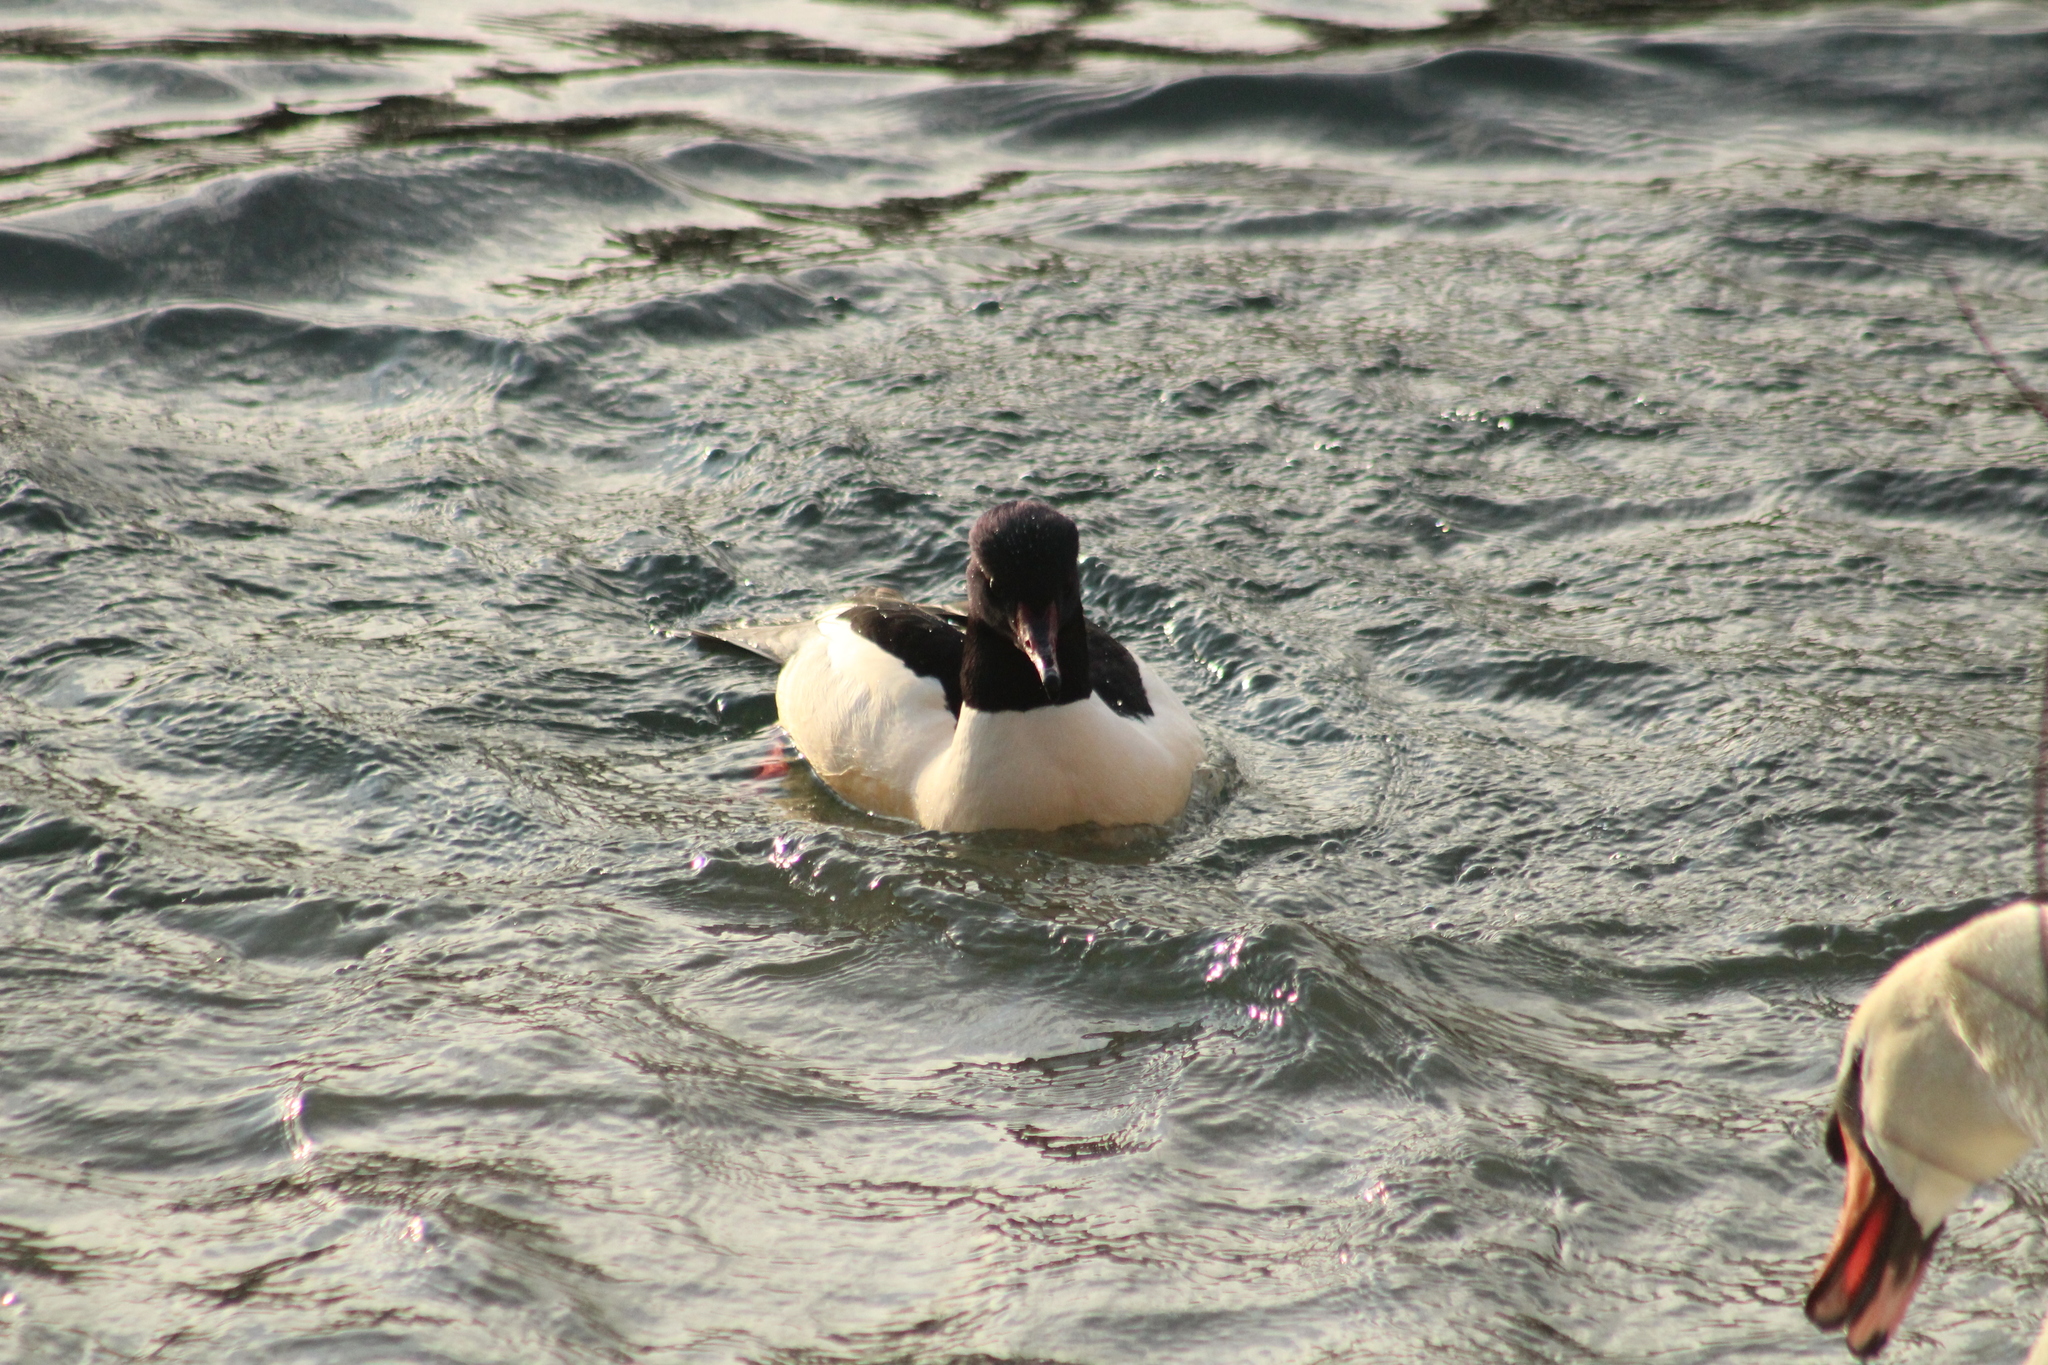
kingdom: Animalia
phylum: Chordata
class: Aves
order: Anseriformes
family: Anatidae
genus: Mergus
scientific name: Mergus merganser
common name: Common merganser
